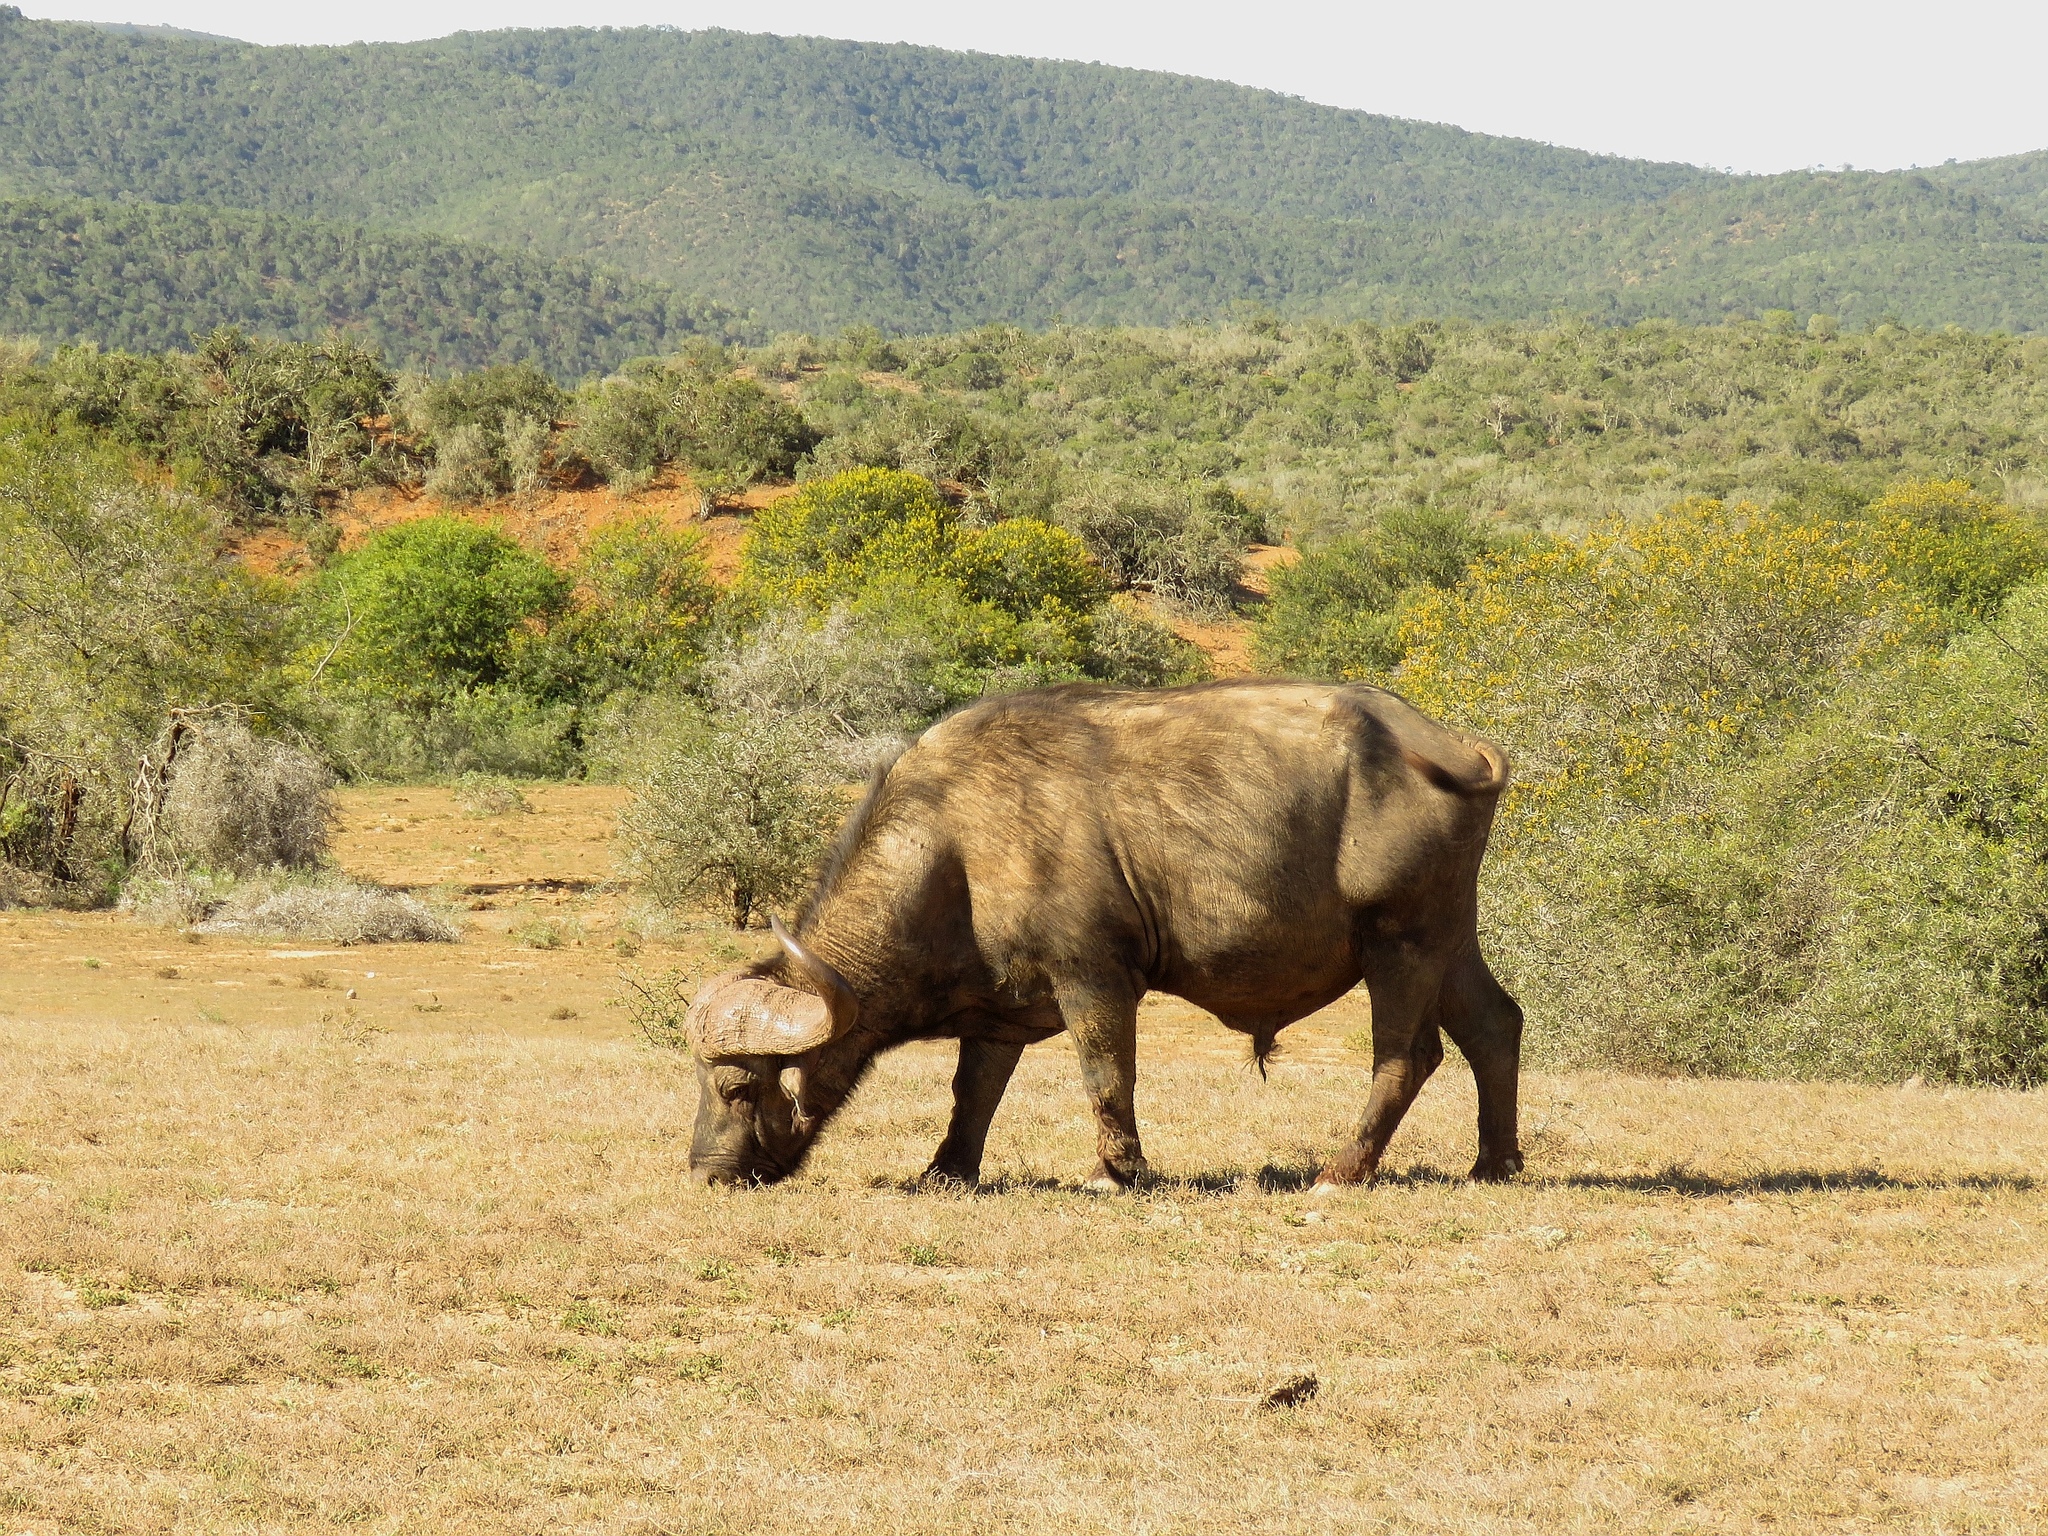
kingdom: Animalia
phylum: Chordata
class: Mammalia
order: Artiodactyla
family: Bovidae
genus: Syncerus
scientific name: Syncerus caffer
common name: African buffalo
